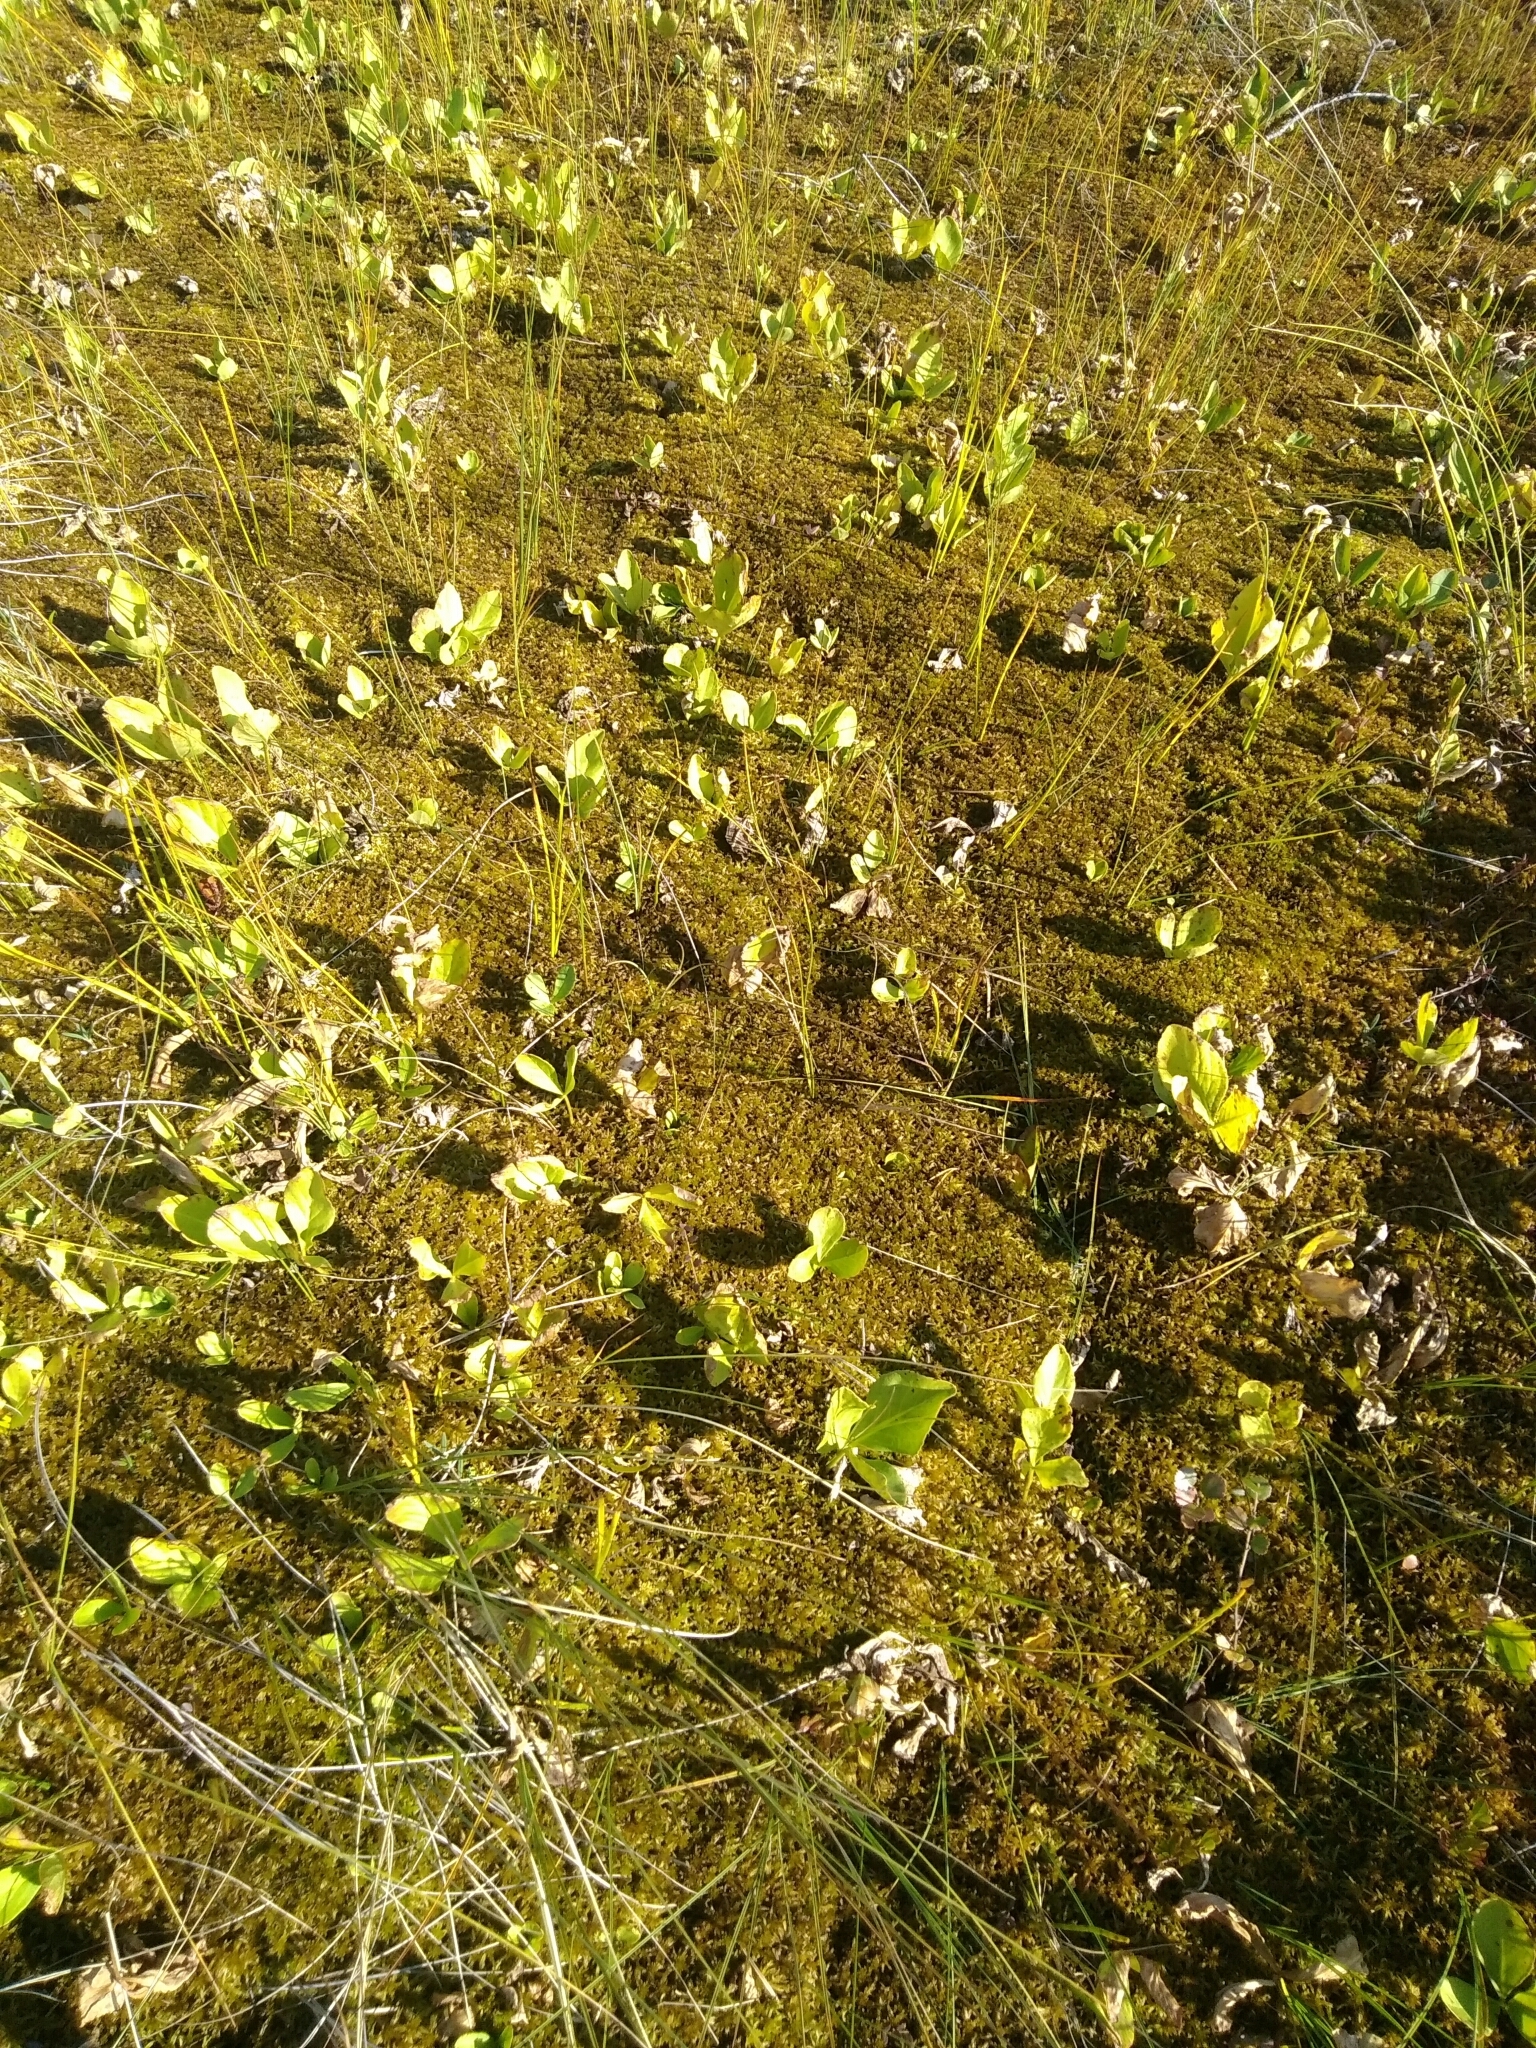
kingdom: Plantae
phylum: Tracheophyta
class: Magnoliopsida
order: Asterales
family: Menyanthaceae
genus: Menyanthes
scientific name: Menyanthes trifoliata
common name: Bogbean
